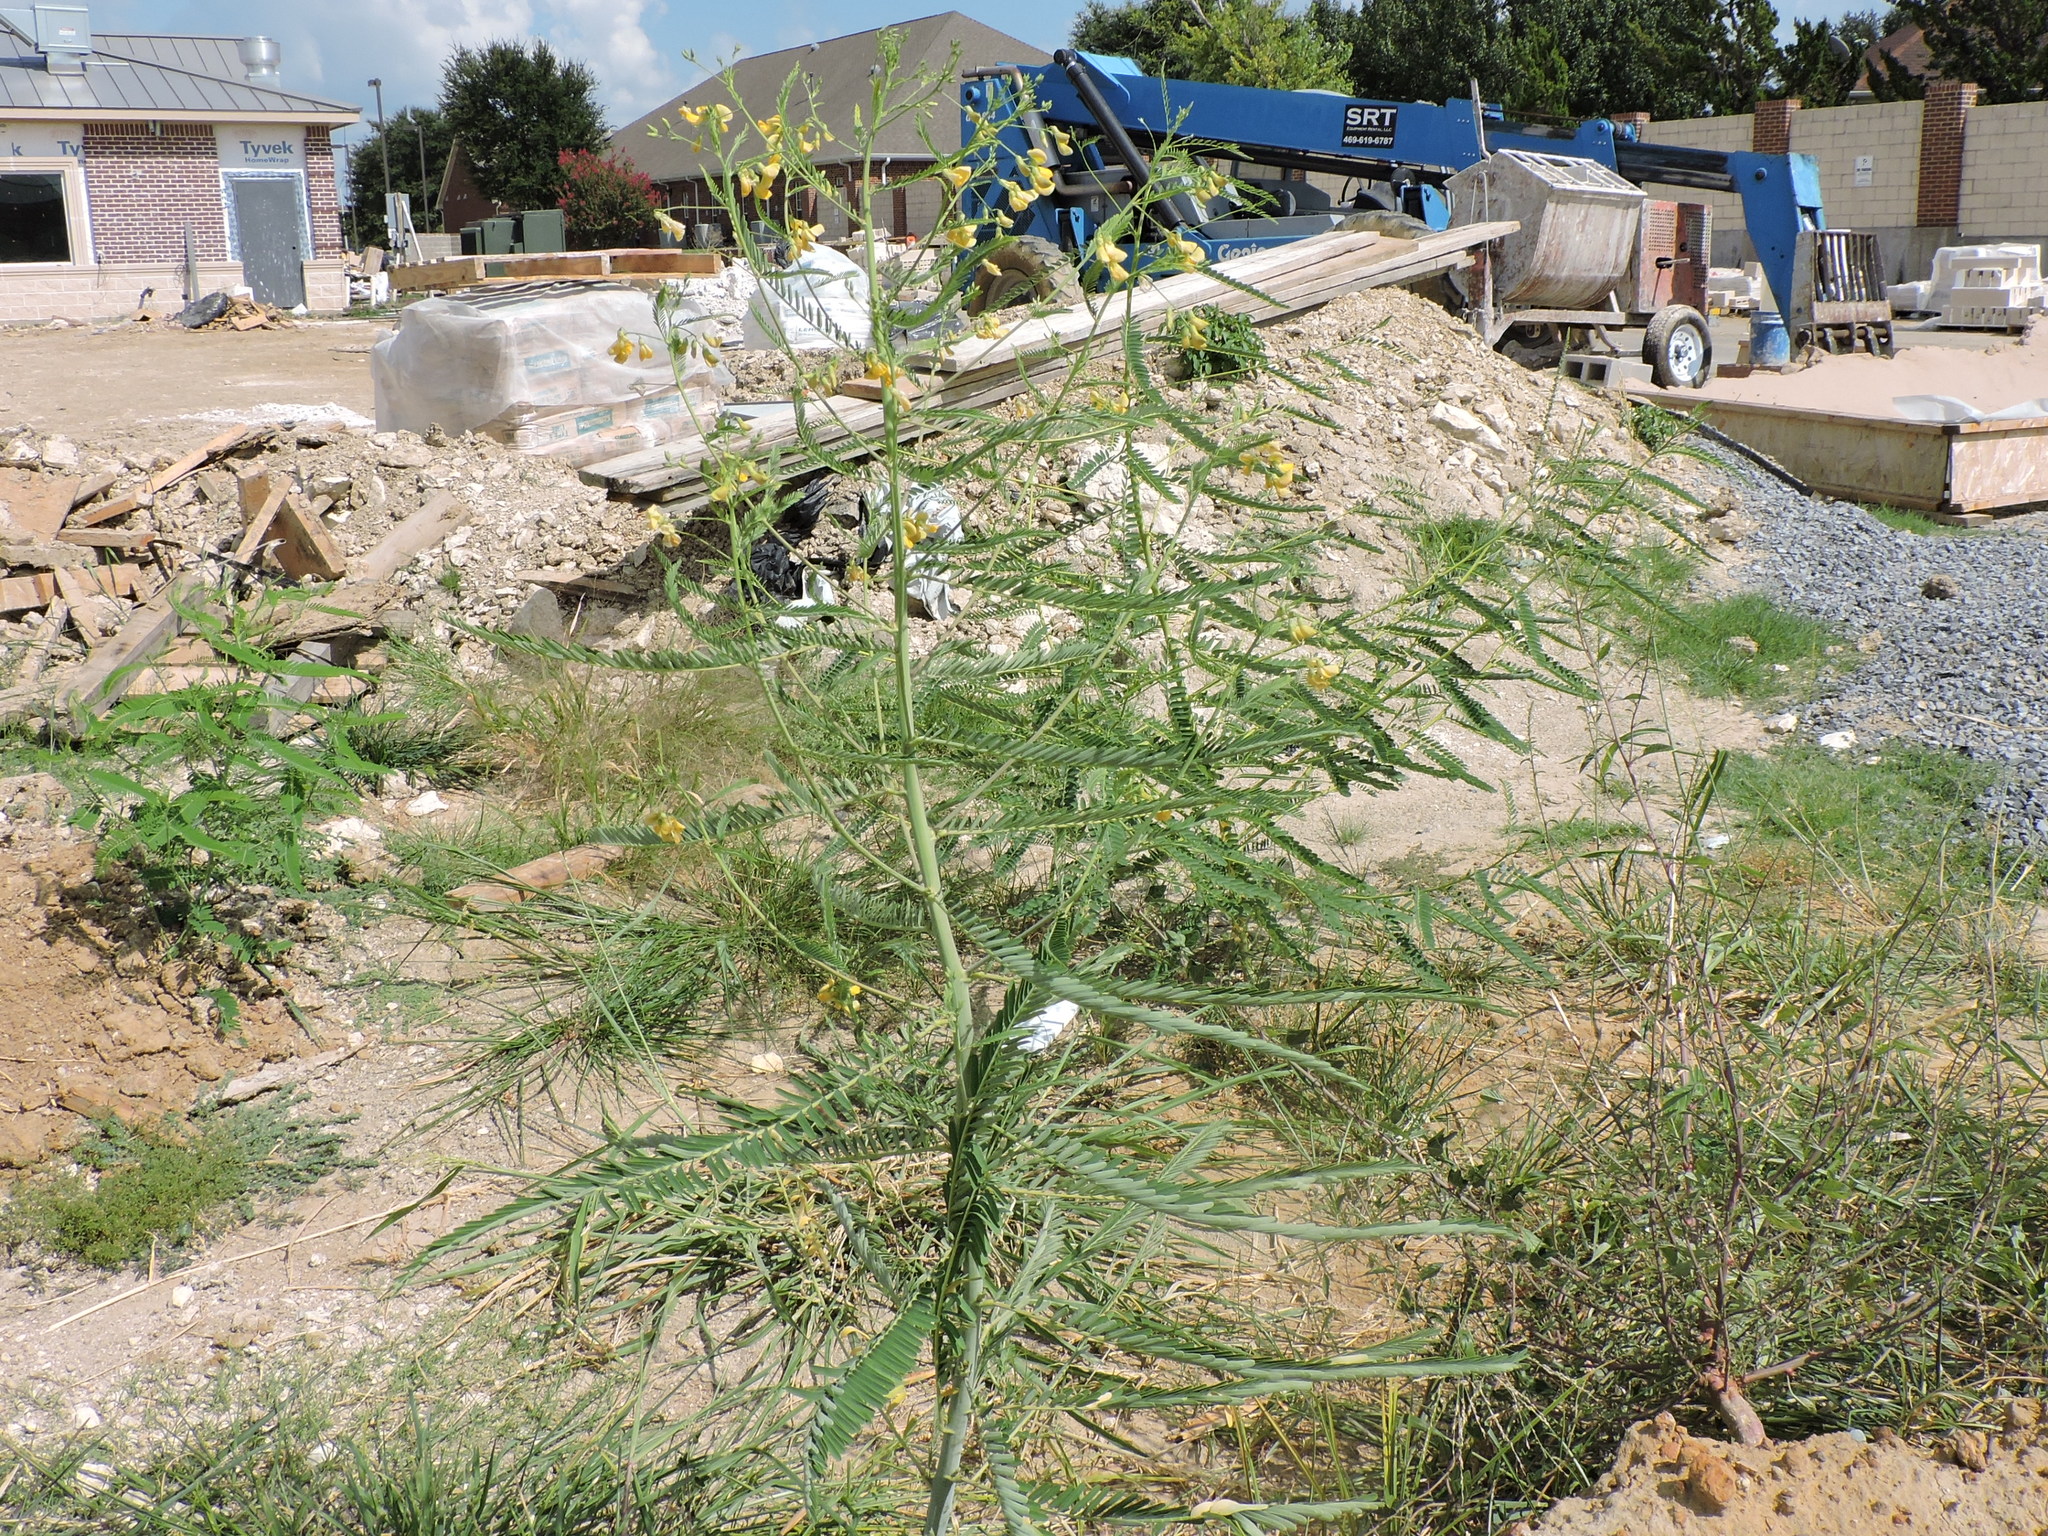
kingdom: Plantae
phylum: Tracheophyta
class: Magnoliopsida
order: Fabales
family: Fabaceae
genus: Sesbania
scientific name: Sesbania herbacea
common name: Bigpod sesbania
